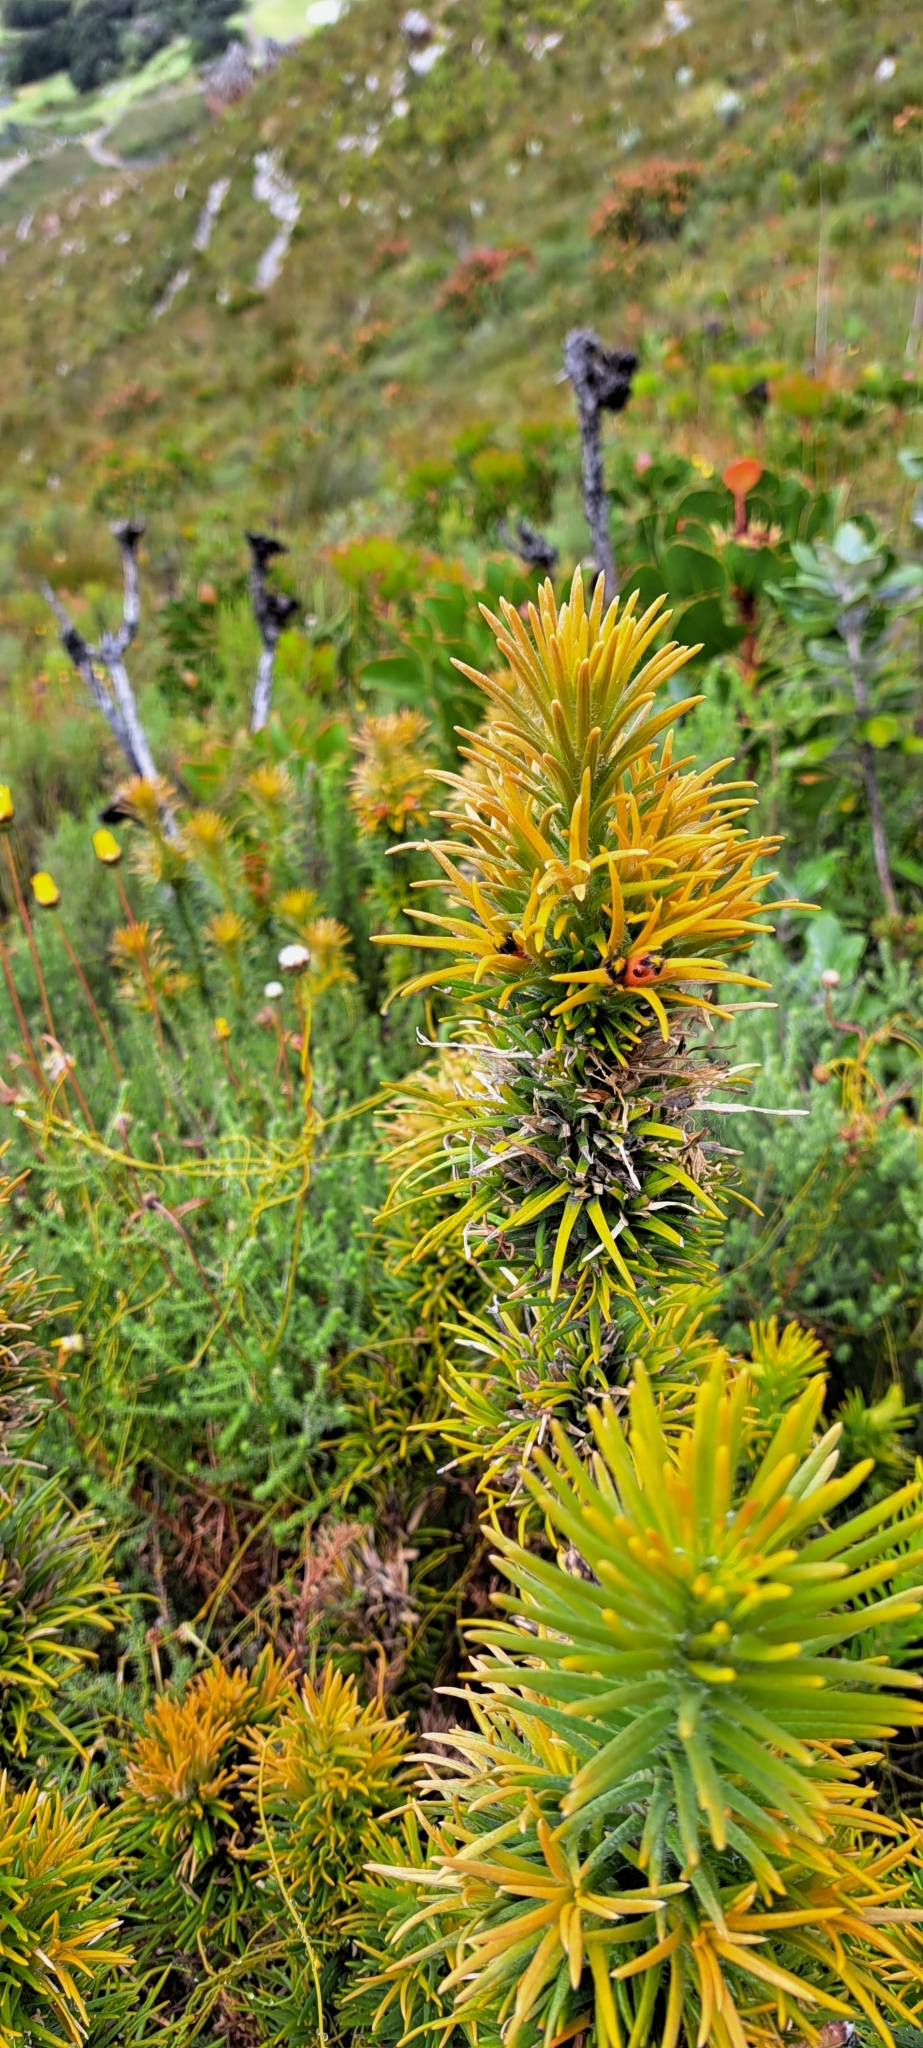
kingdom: Plantae
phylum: Tracheophyta
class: Magnoliopsida
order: Lamiales
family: Stilbaceae
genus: Retzia
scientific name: Retzia capensis
